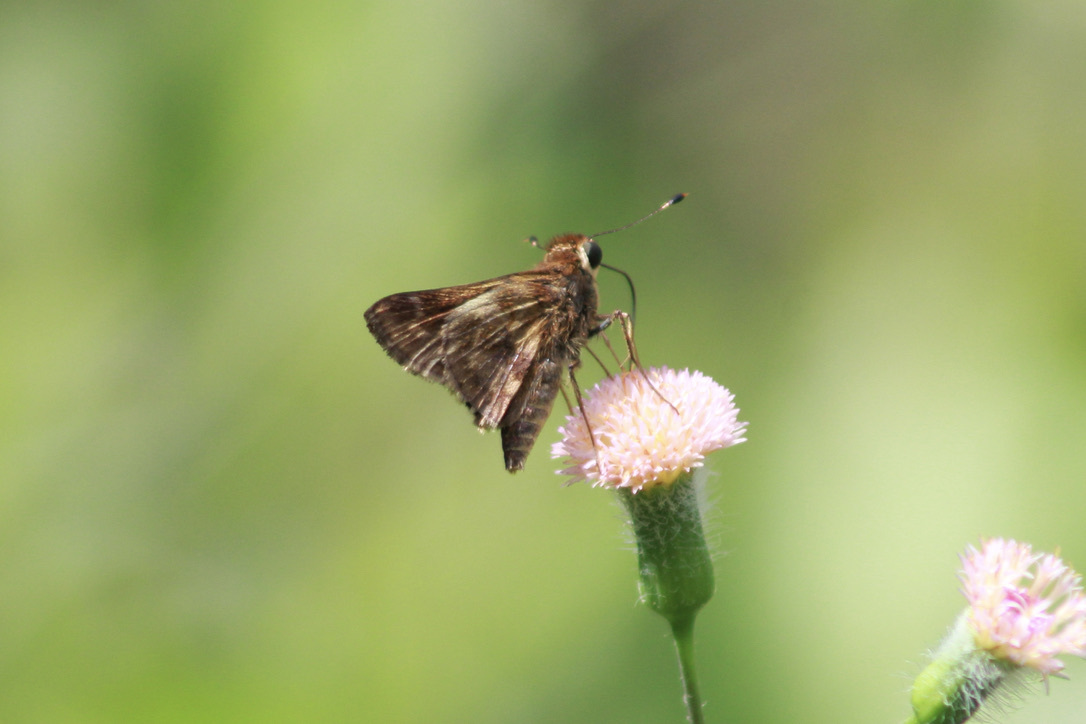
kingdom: Animalia
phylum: Arthropoda
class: Insecta
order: Lepidoptera
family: Hesperiidae
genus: Pompeius
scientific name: Pompeius pompeius
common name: Pompeius skipper
